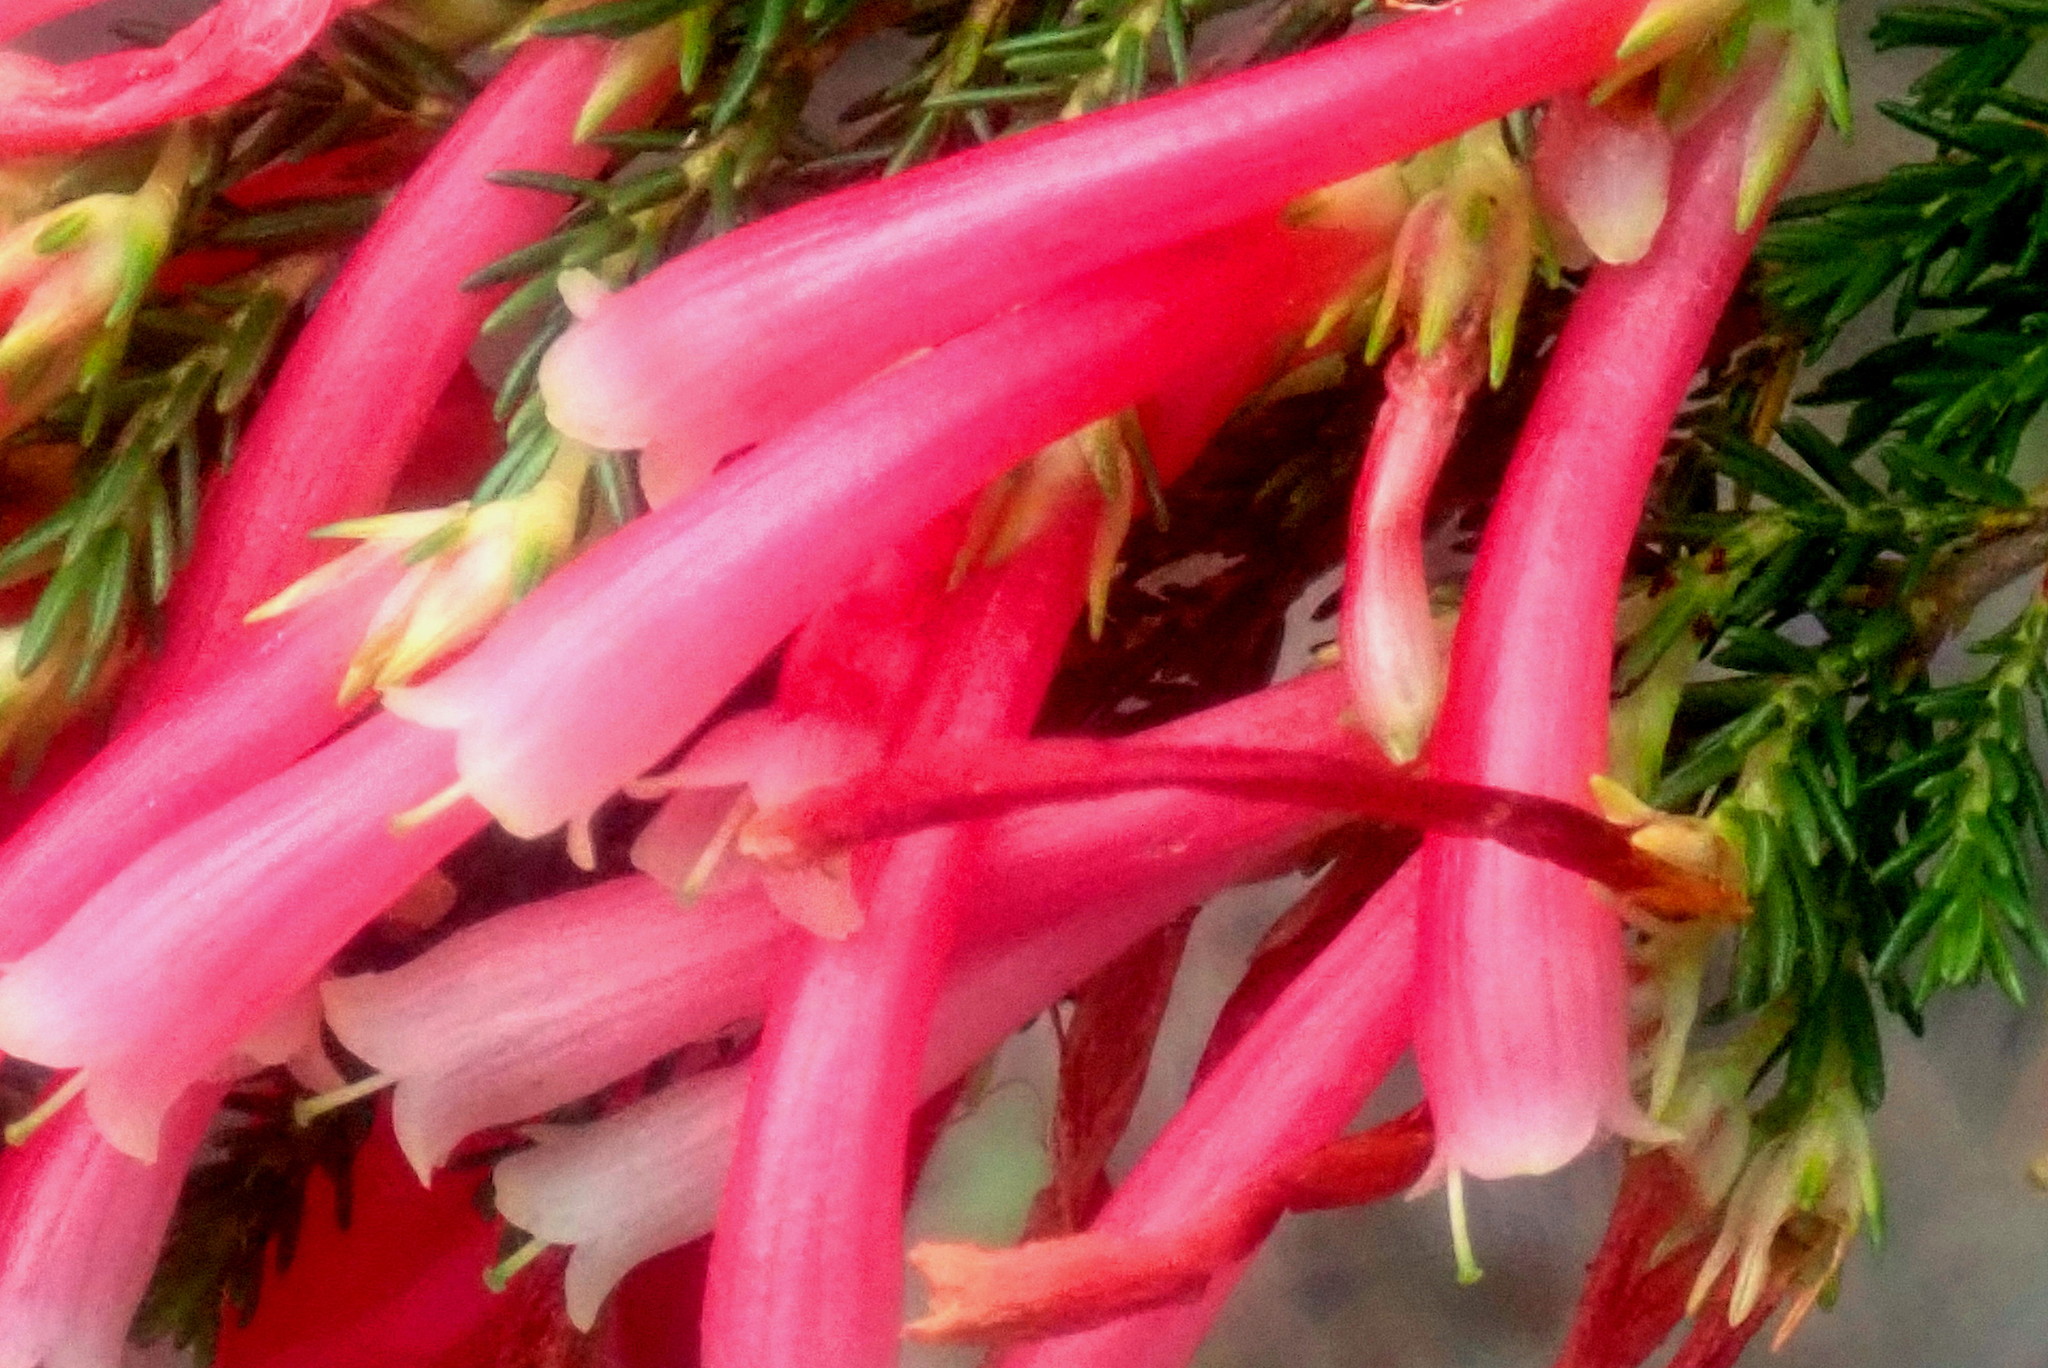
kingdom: Plantae
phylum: Tracheophyta
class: Magnoliopsida
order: Ericales
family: Ericaceae
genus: Erica
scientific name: Erica discolor
